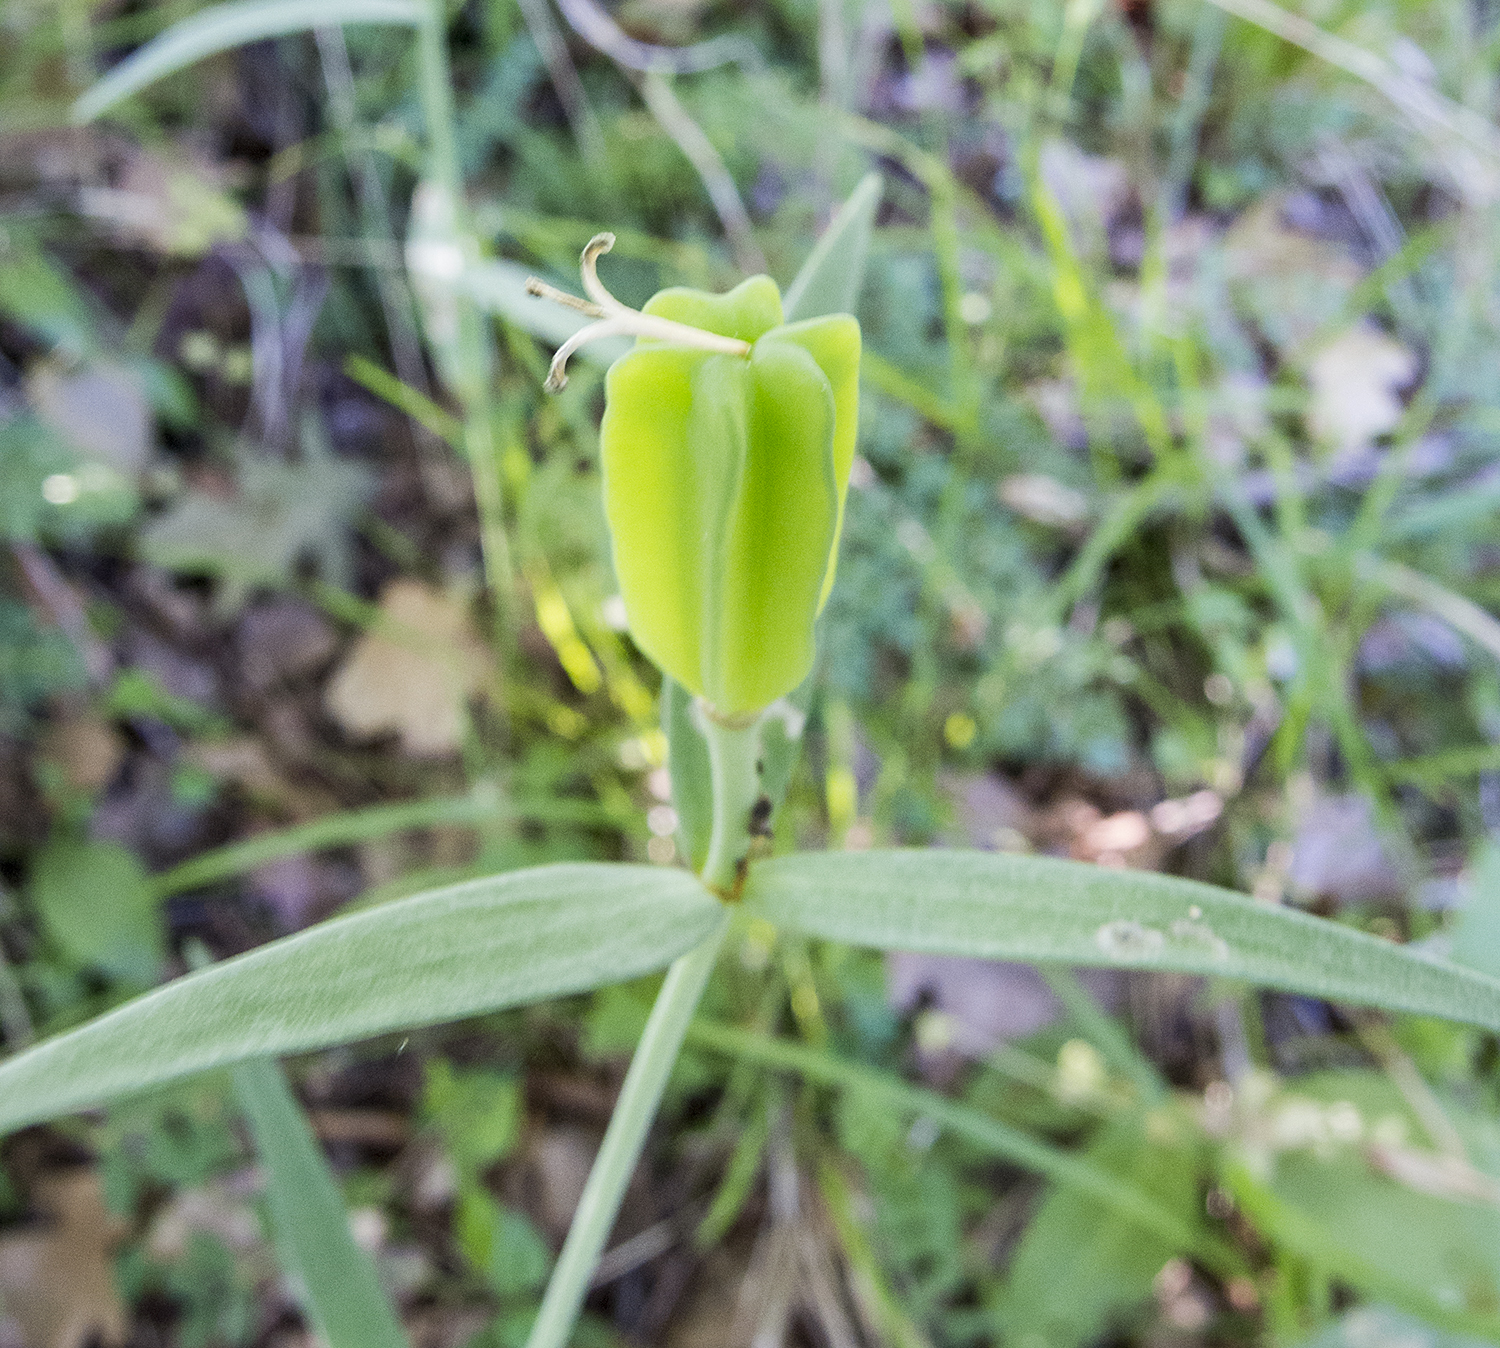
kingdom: Plantae
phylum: Tracheophyta
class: Liliopsida
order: Liliales
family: Liliaceae
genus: Fritillaria
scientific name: Fritillaria pontica
